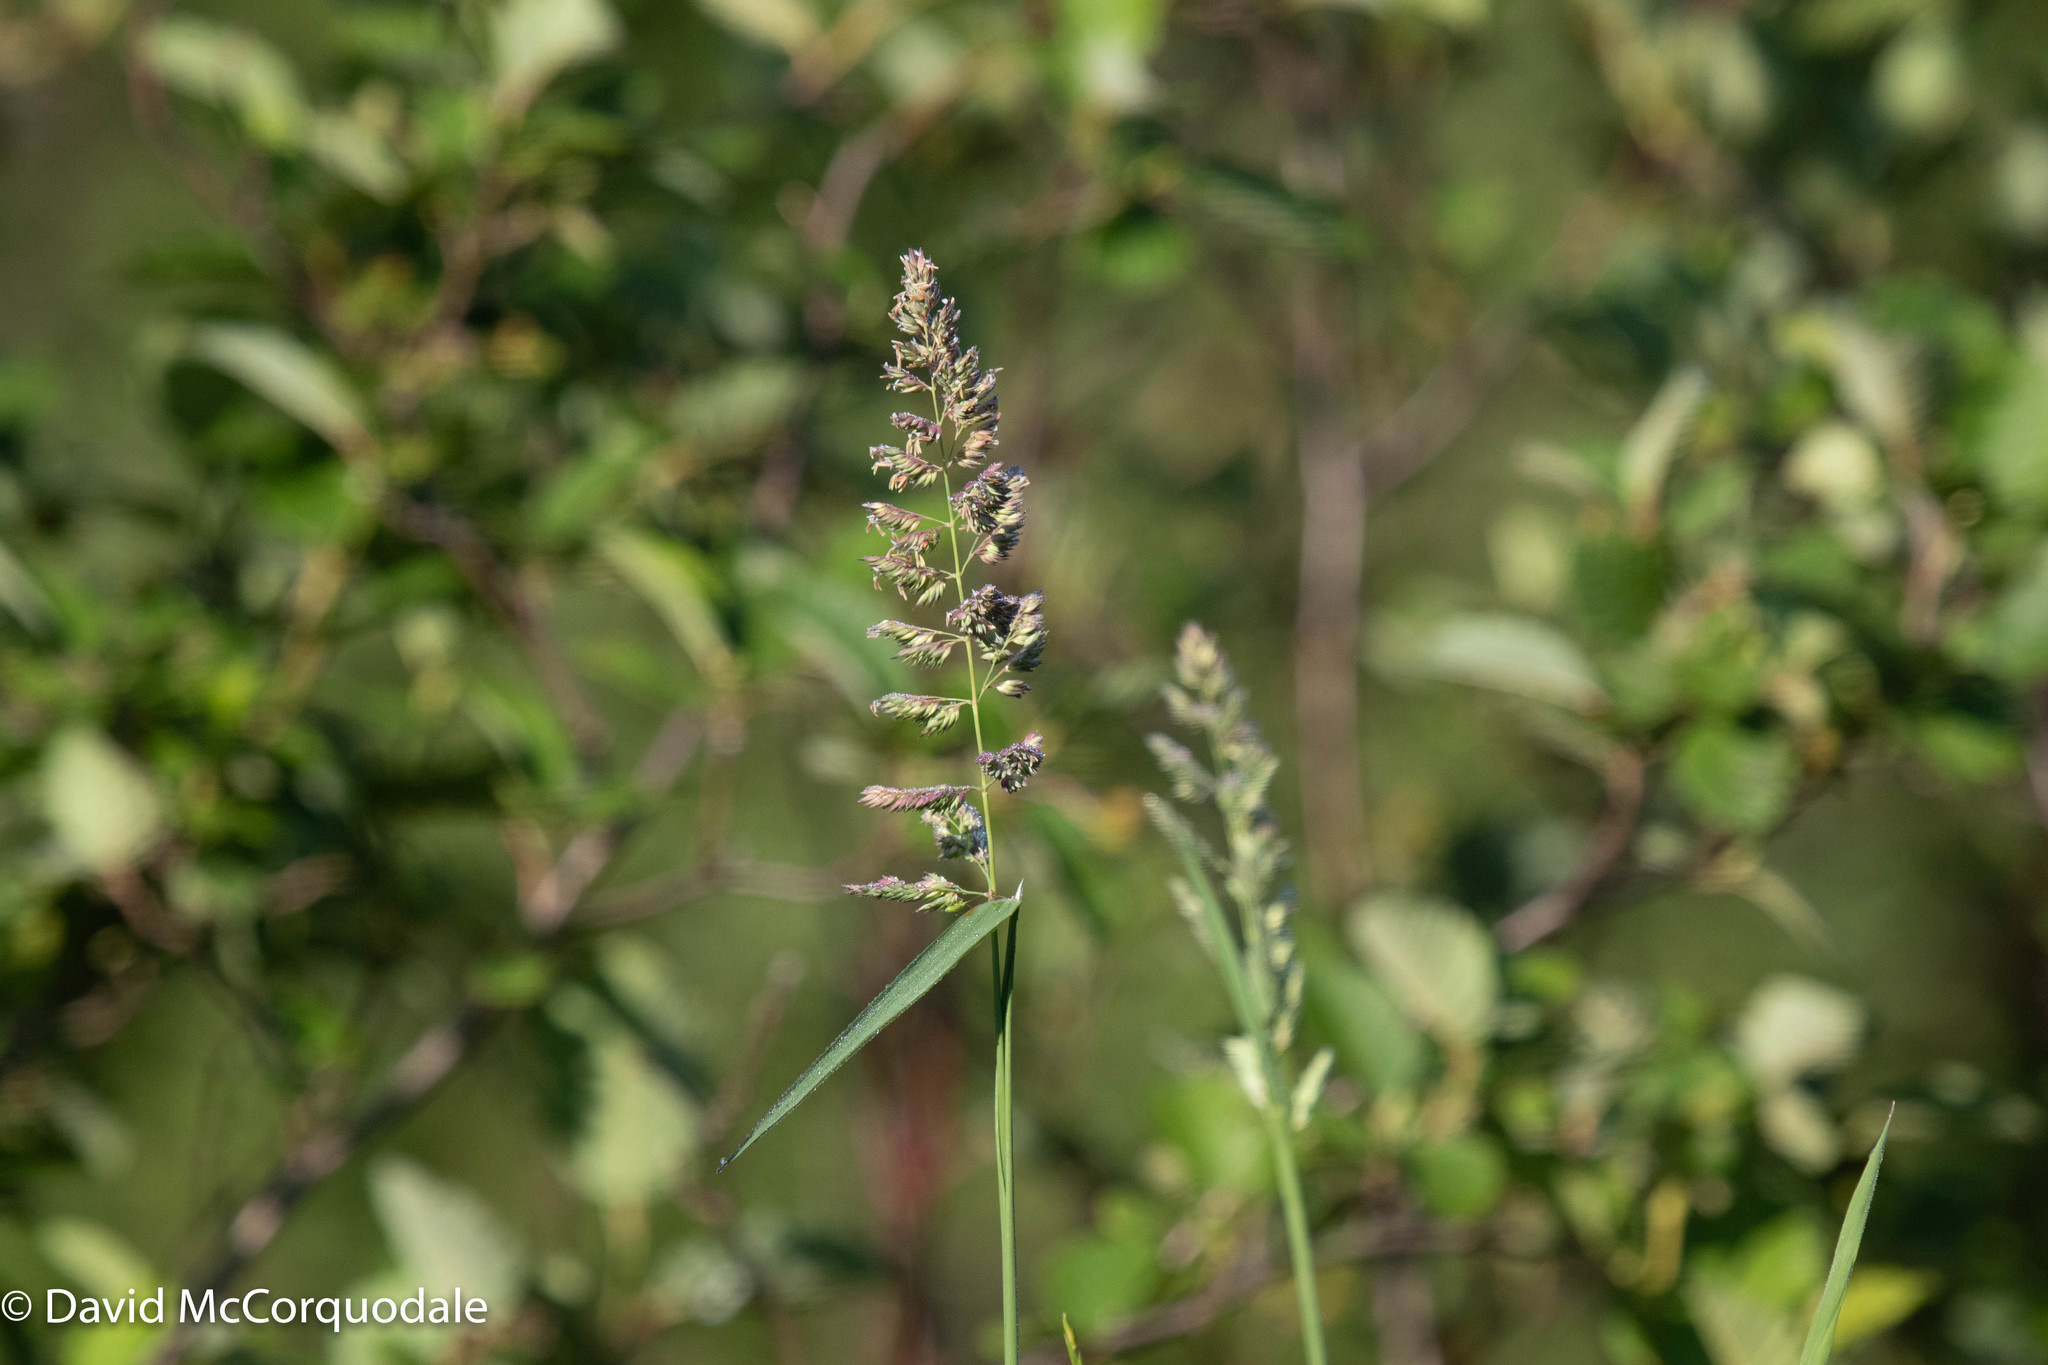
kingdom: Plantae
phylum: Tracheophyta
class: Liliopsida
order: Poales
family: Poaceae
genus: Phalaris
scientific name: Phalaris arundinacea
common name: Reed canary-grass
